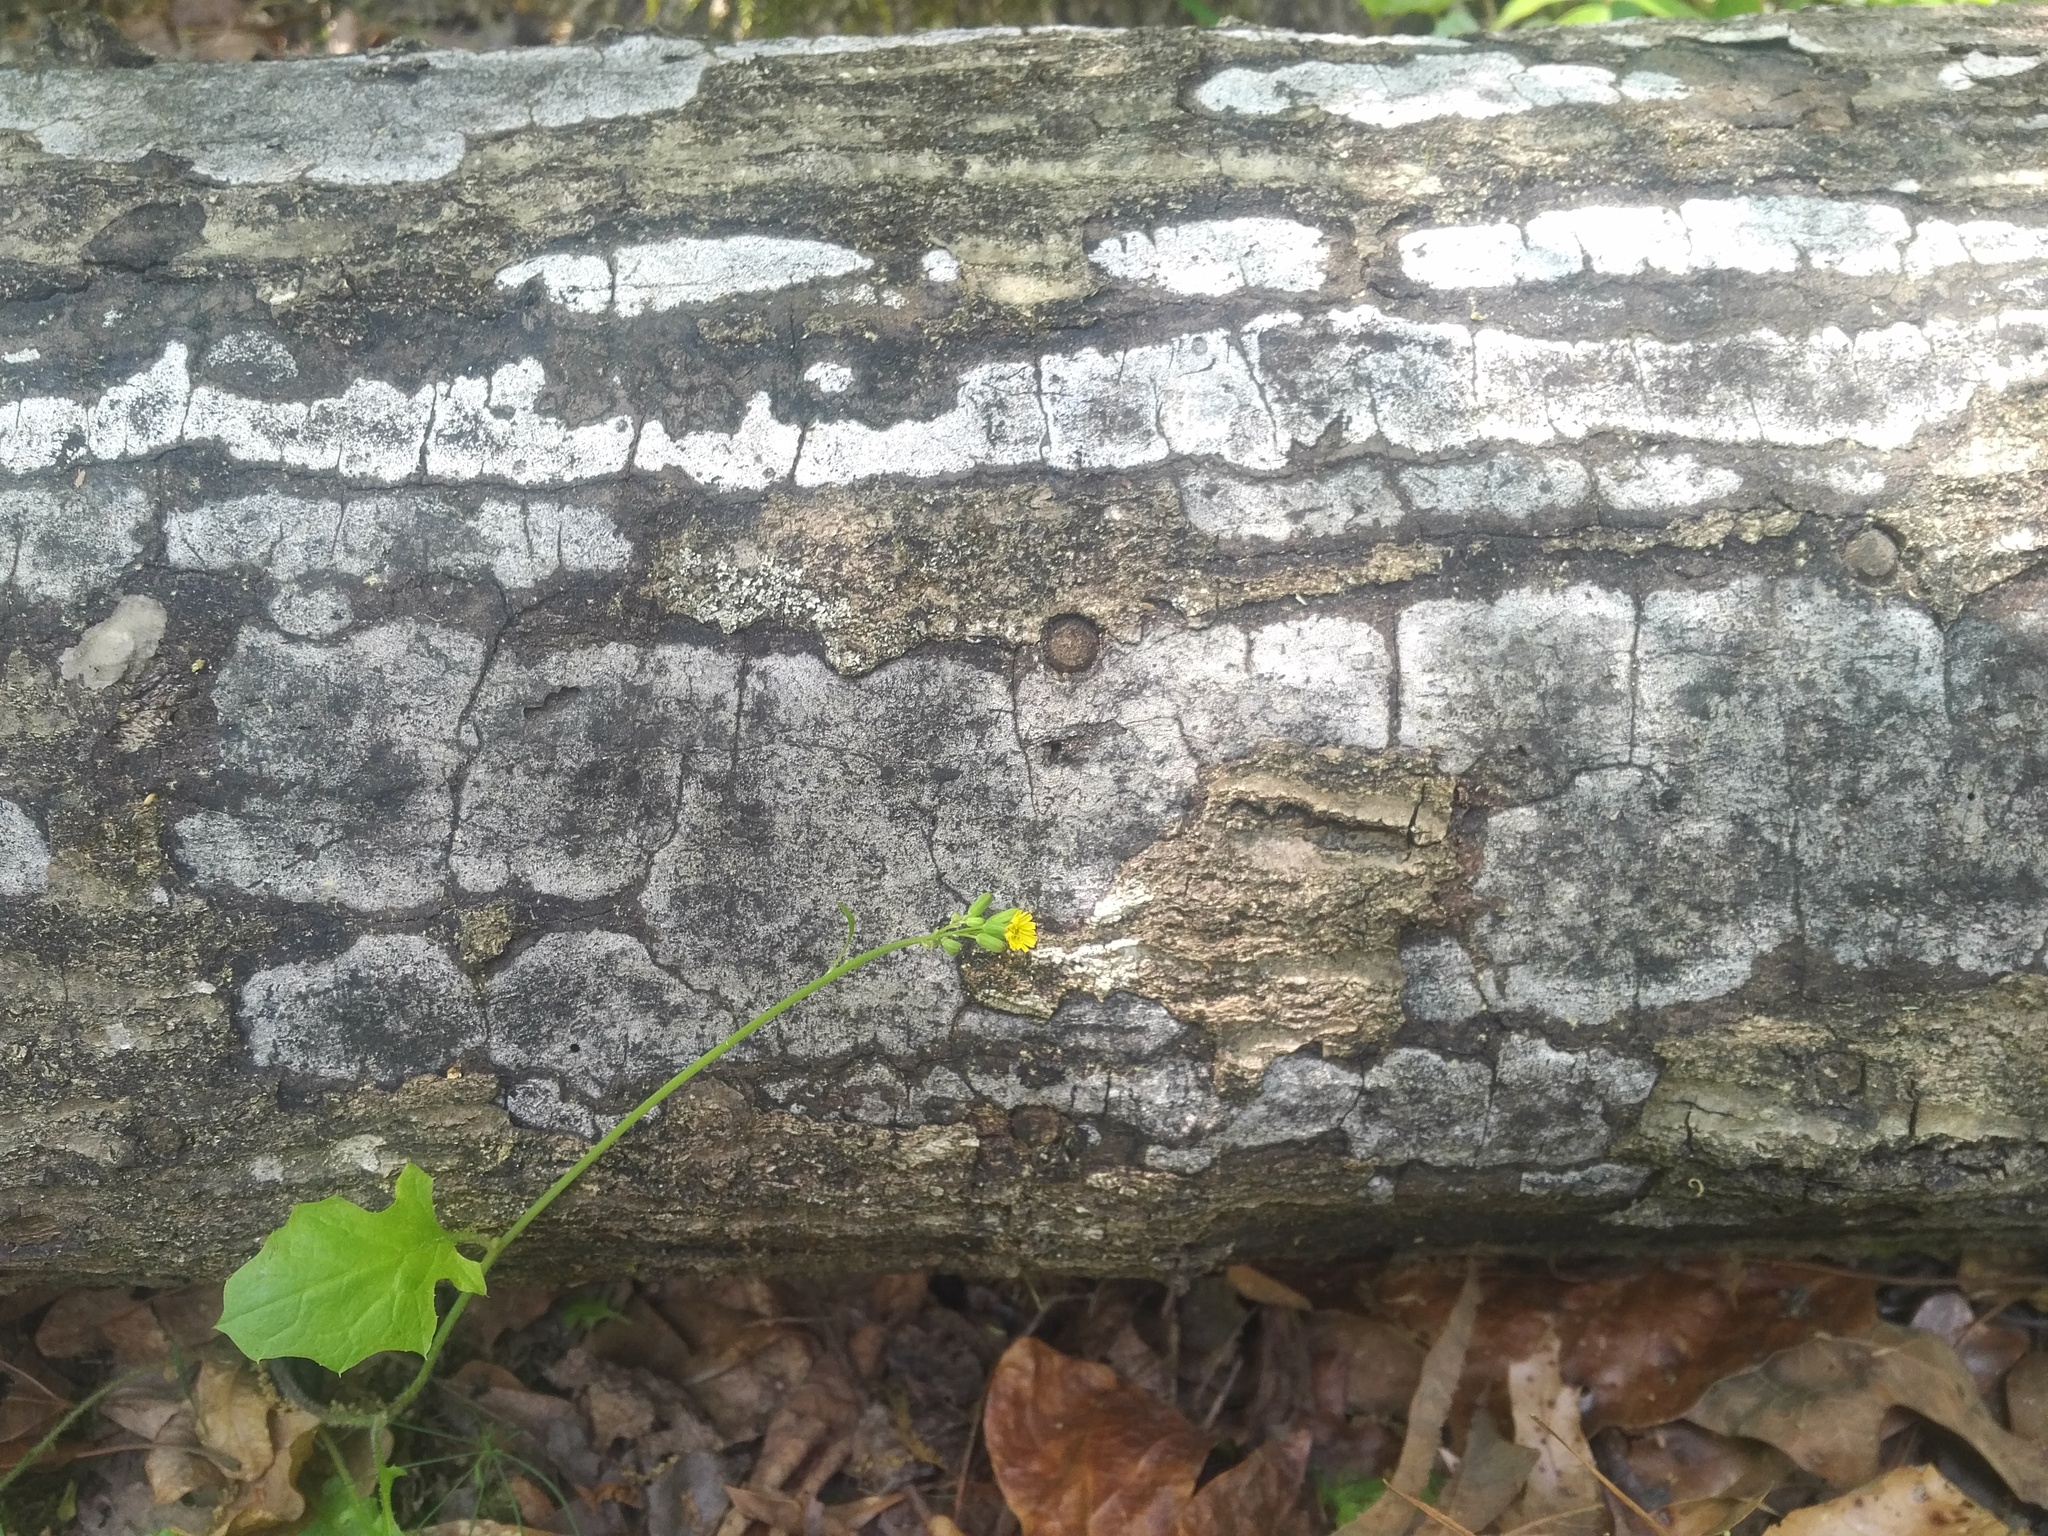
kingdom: Fungi
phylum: Ascomycota
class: Sordariomycetes
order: Xylariales
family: Graphostromataceae
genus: Biscogniauxia
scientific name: Biscogniauxia atropunctata
